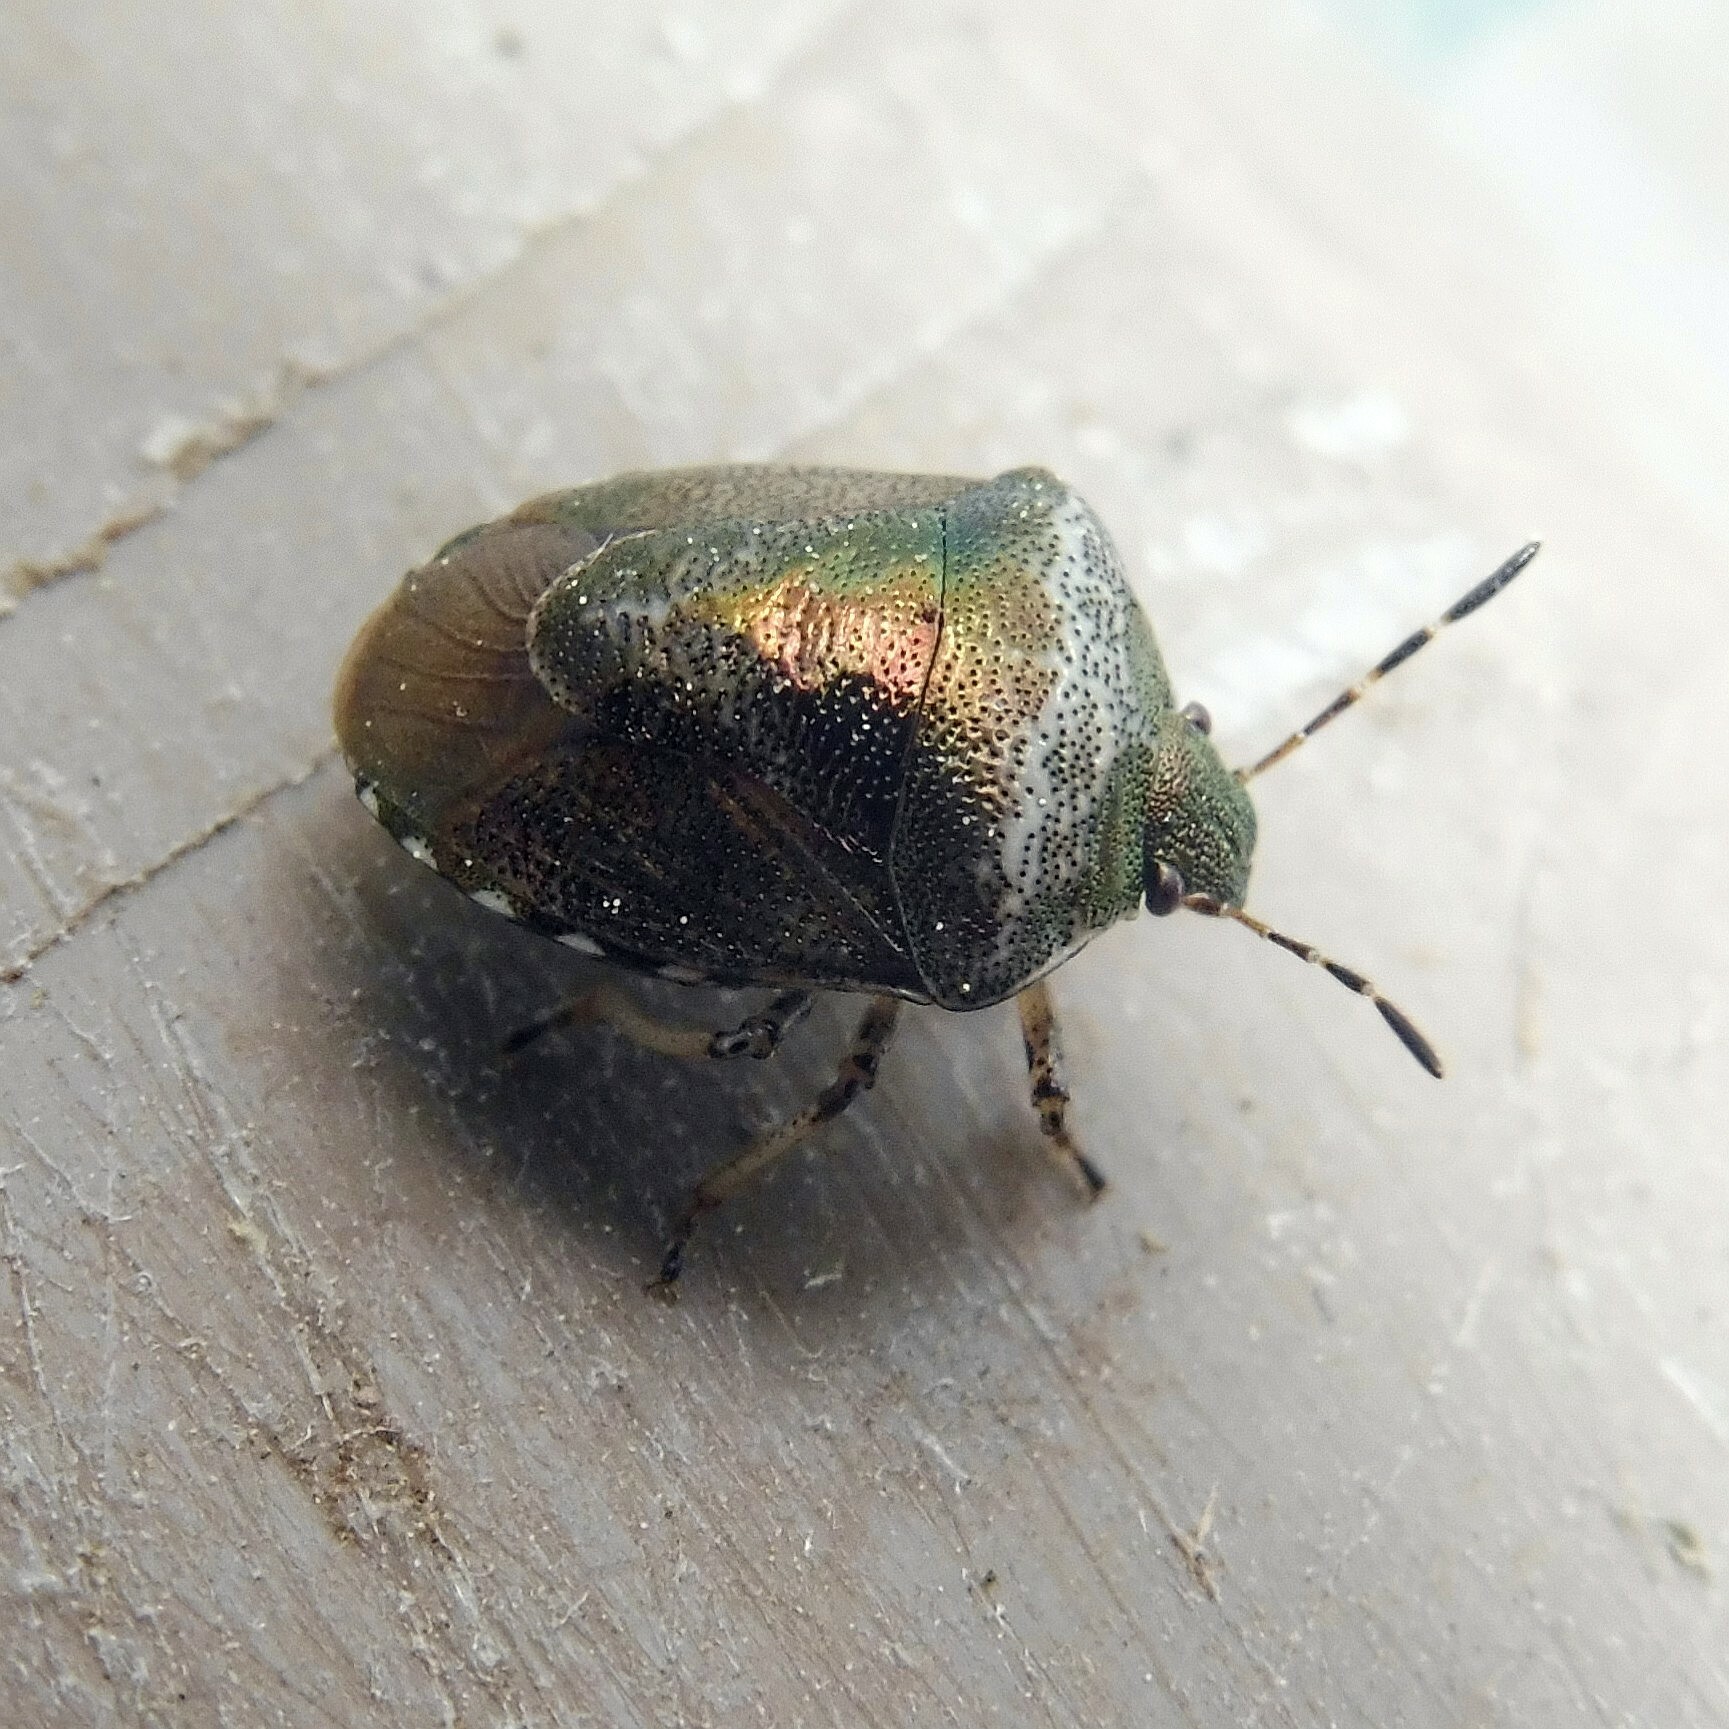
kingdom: Animalia
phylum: Arthropoda
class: Insecta
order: Hemiptera
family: Pentatomidae
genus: Eysarcoris
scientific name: Eysarcoris venustissimus
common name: Woundwort shieldbug
